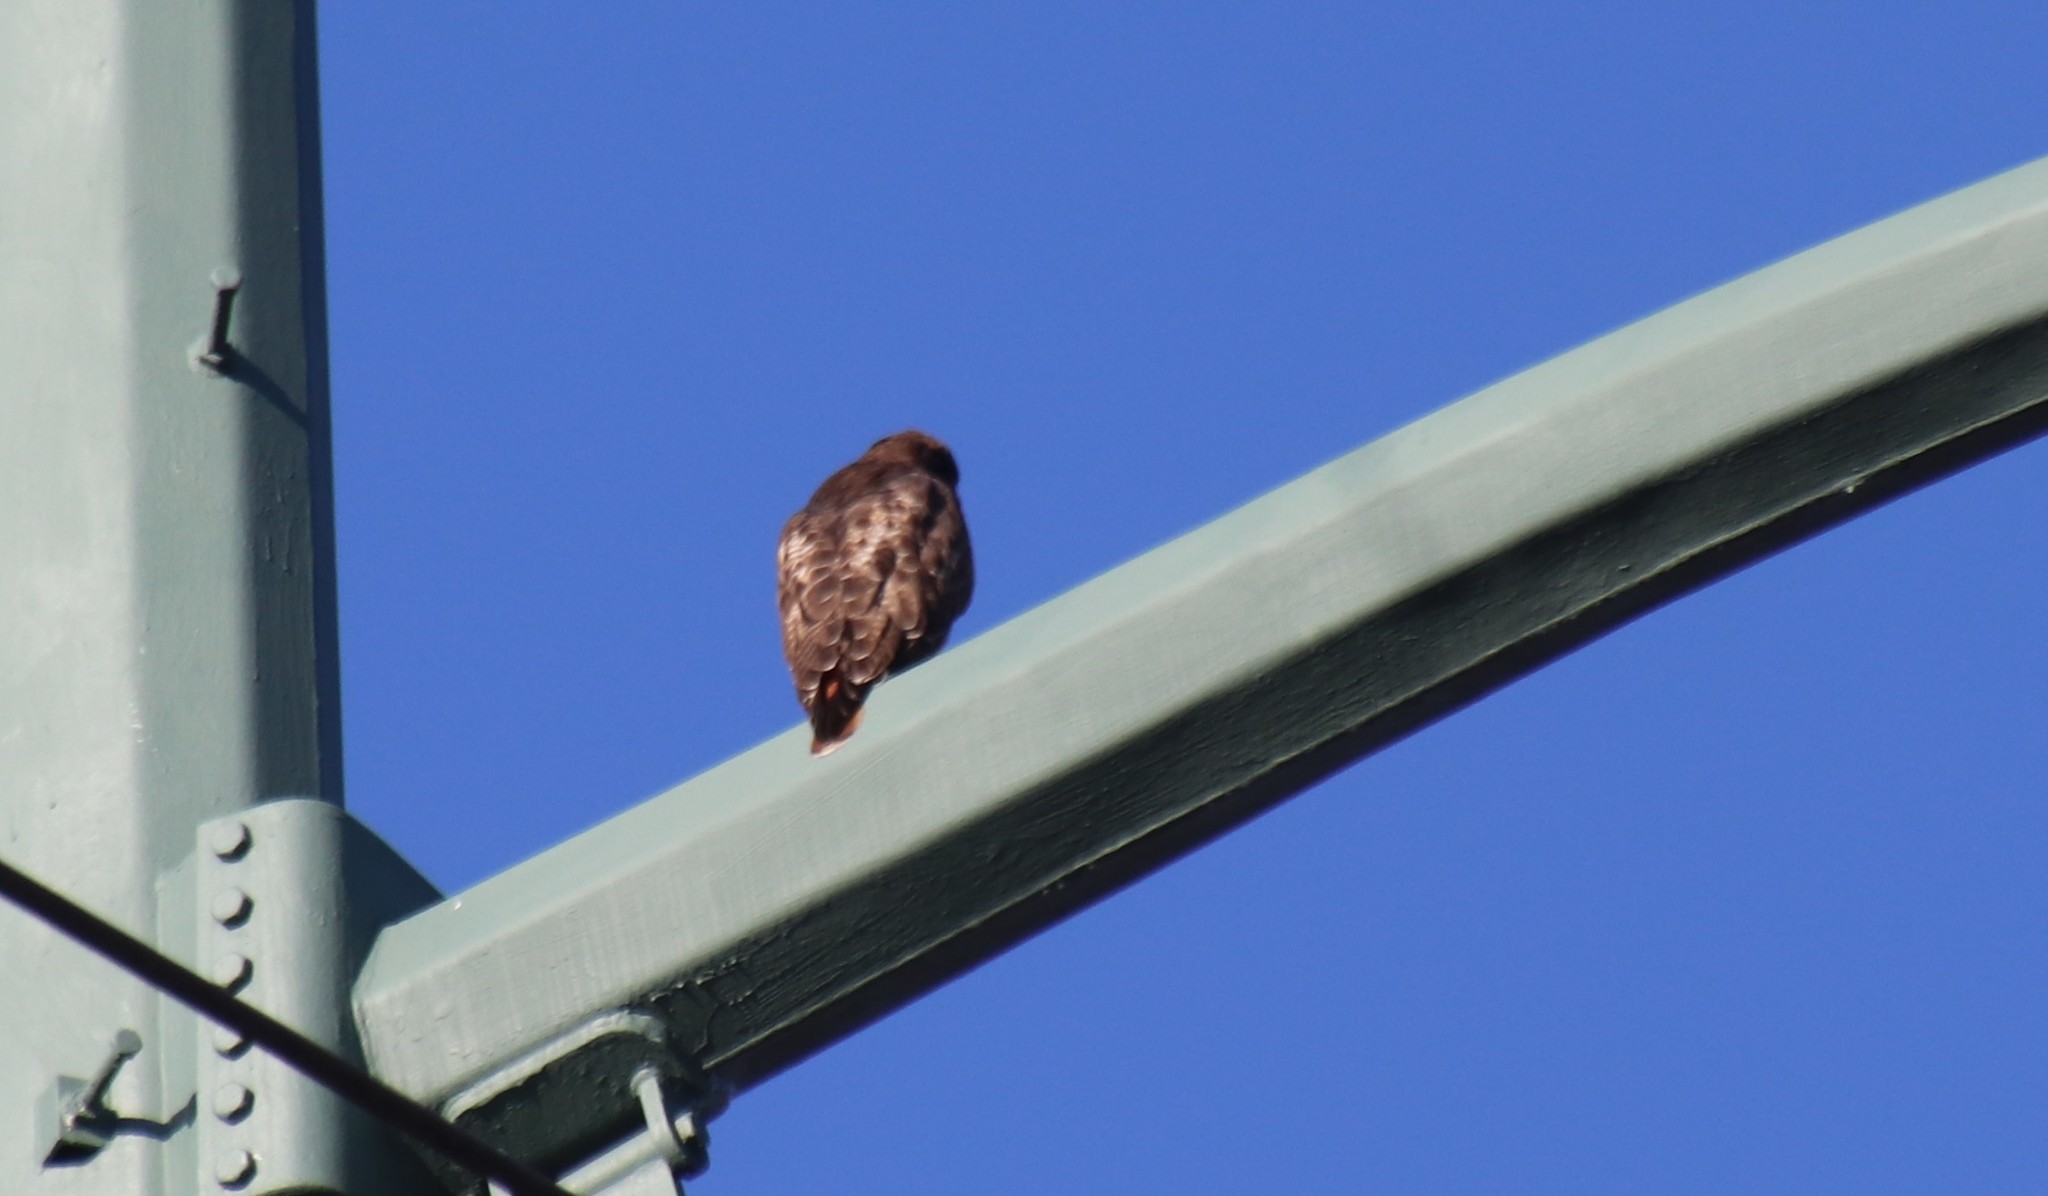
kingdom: Animalia
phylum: Chordata
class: Aves
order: Accipitriformes
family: Accipitridae
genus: Buteo
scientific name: Buteo jamaicensis
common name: Red-tailed hawk
